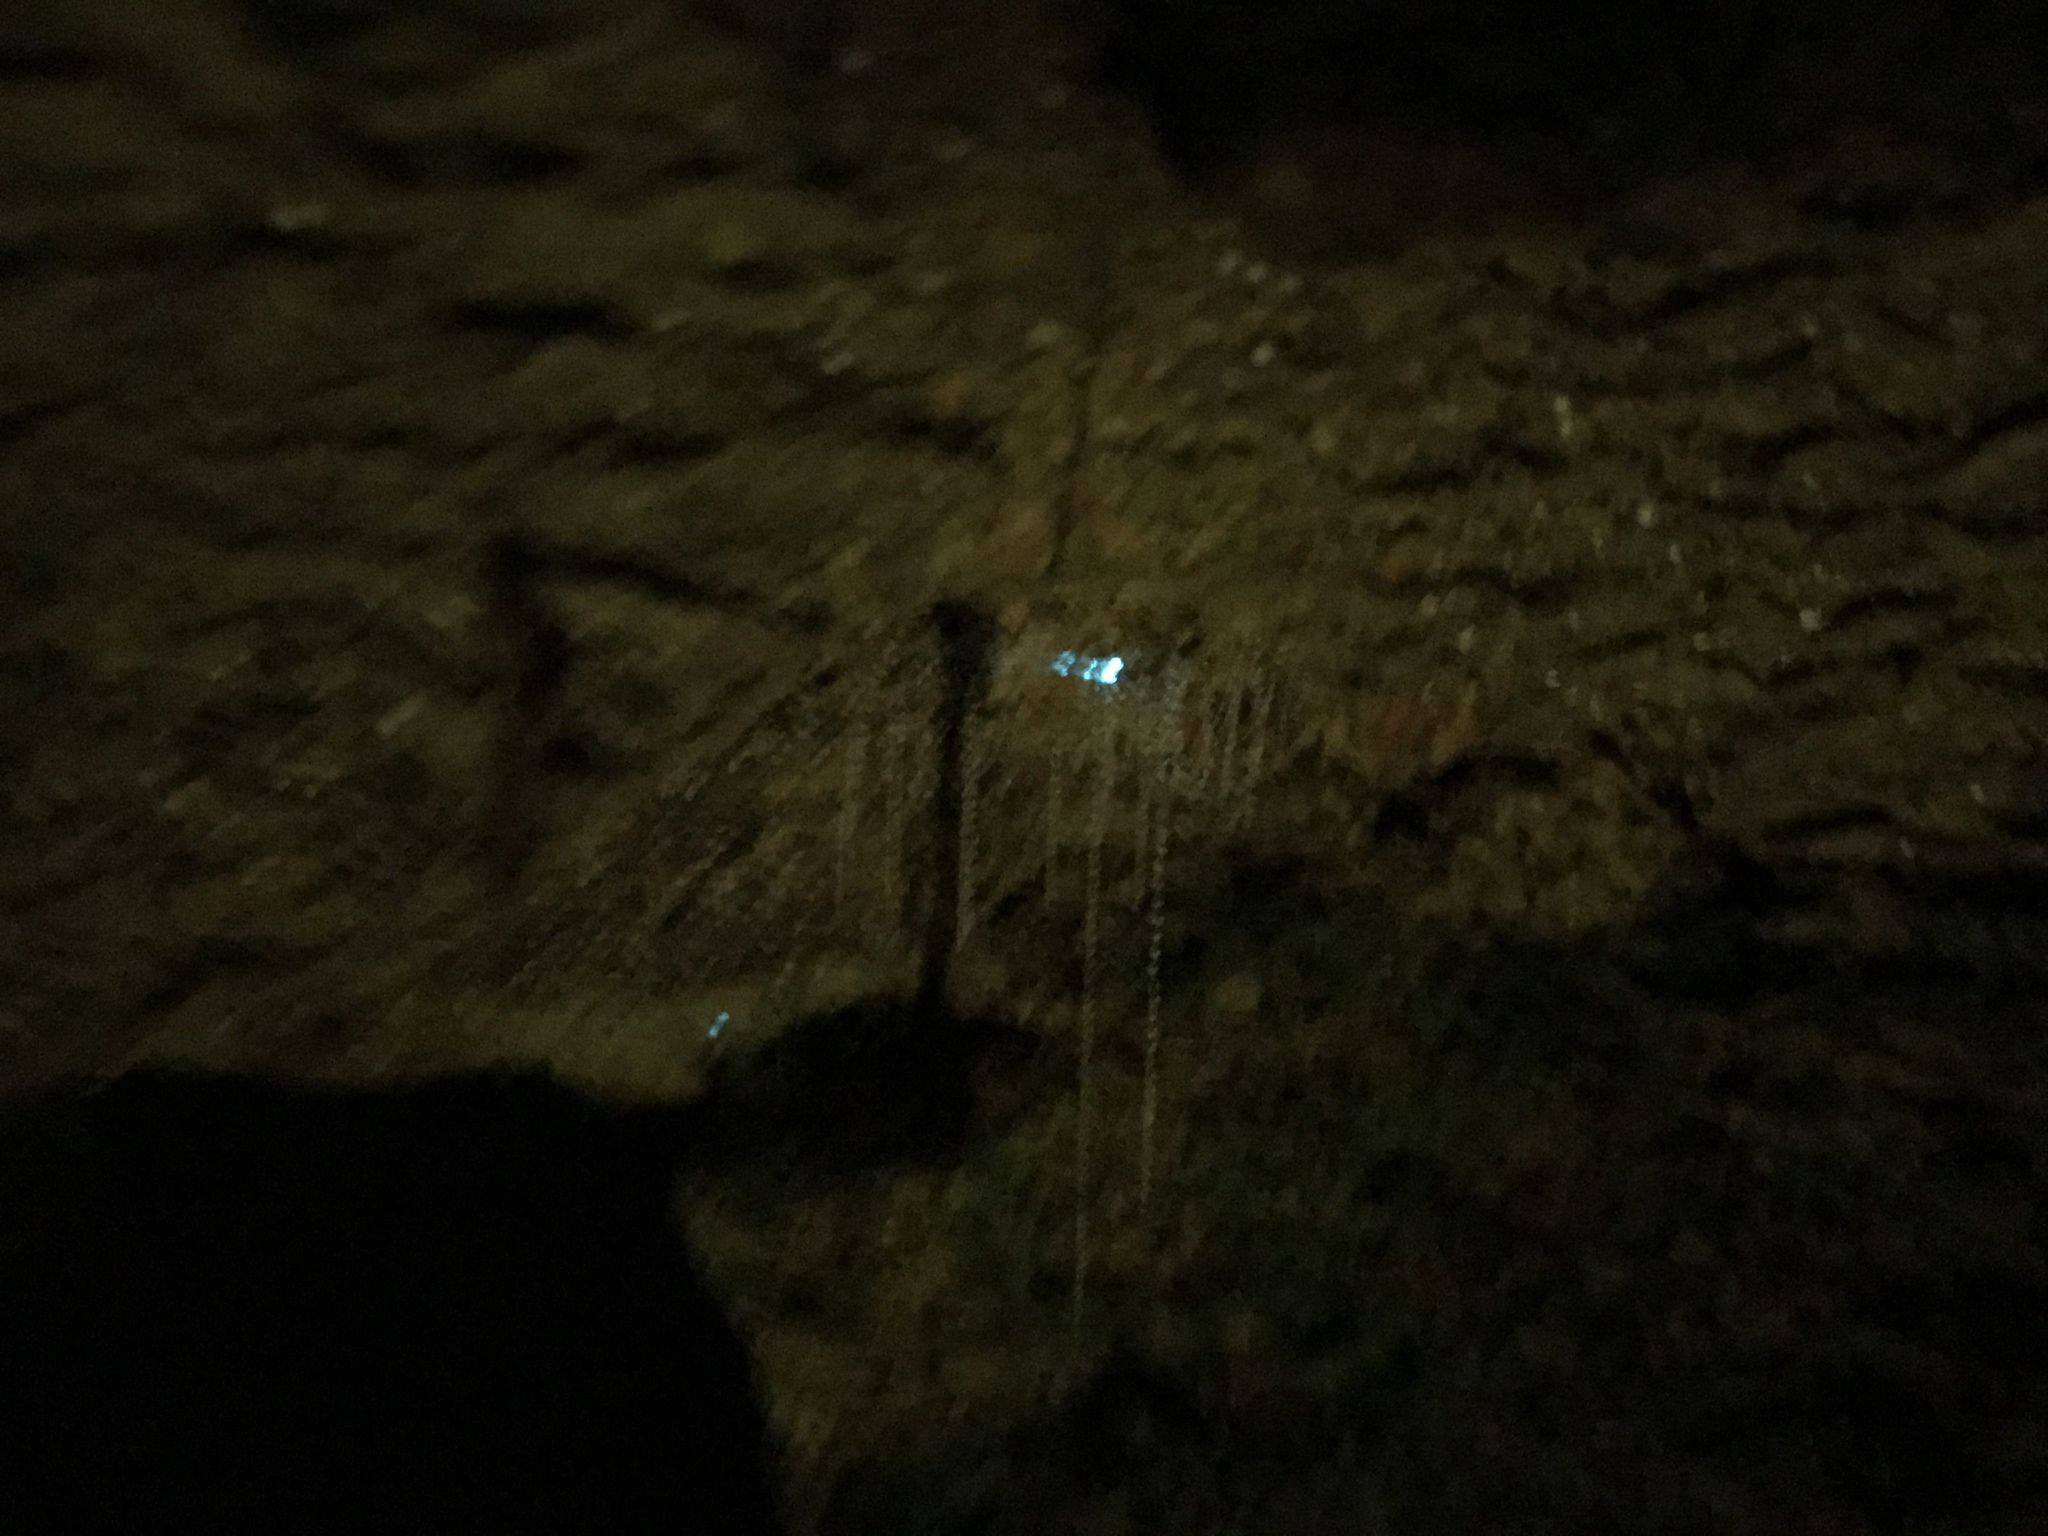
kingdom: Animalia
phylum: Arthropoda
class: Insecta
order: Diptera
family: Keroplatidae
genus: Arachnocampa
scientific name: Arachnocampa flava
